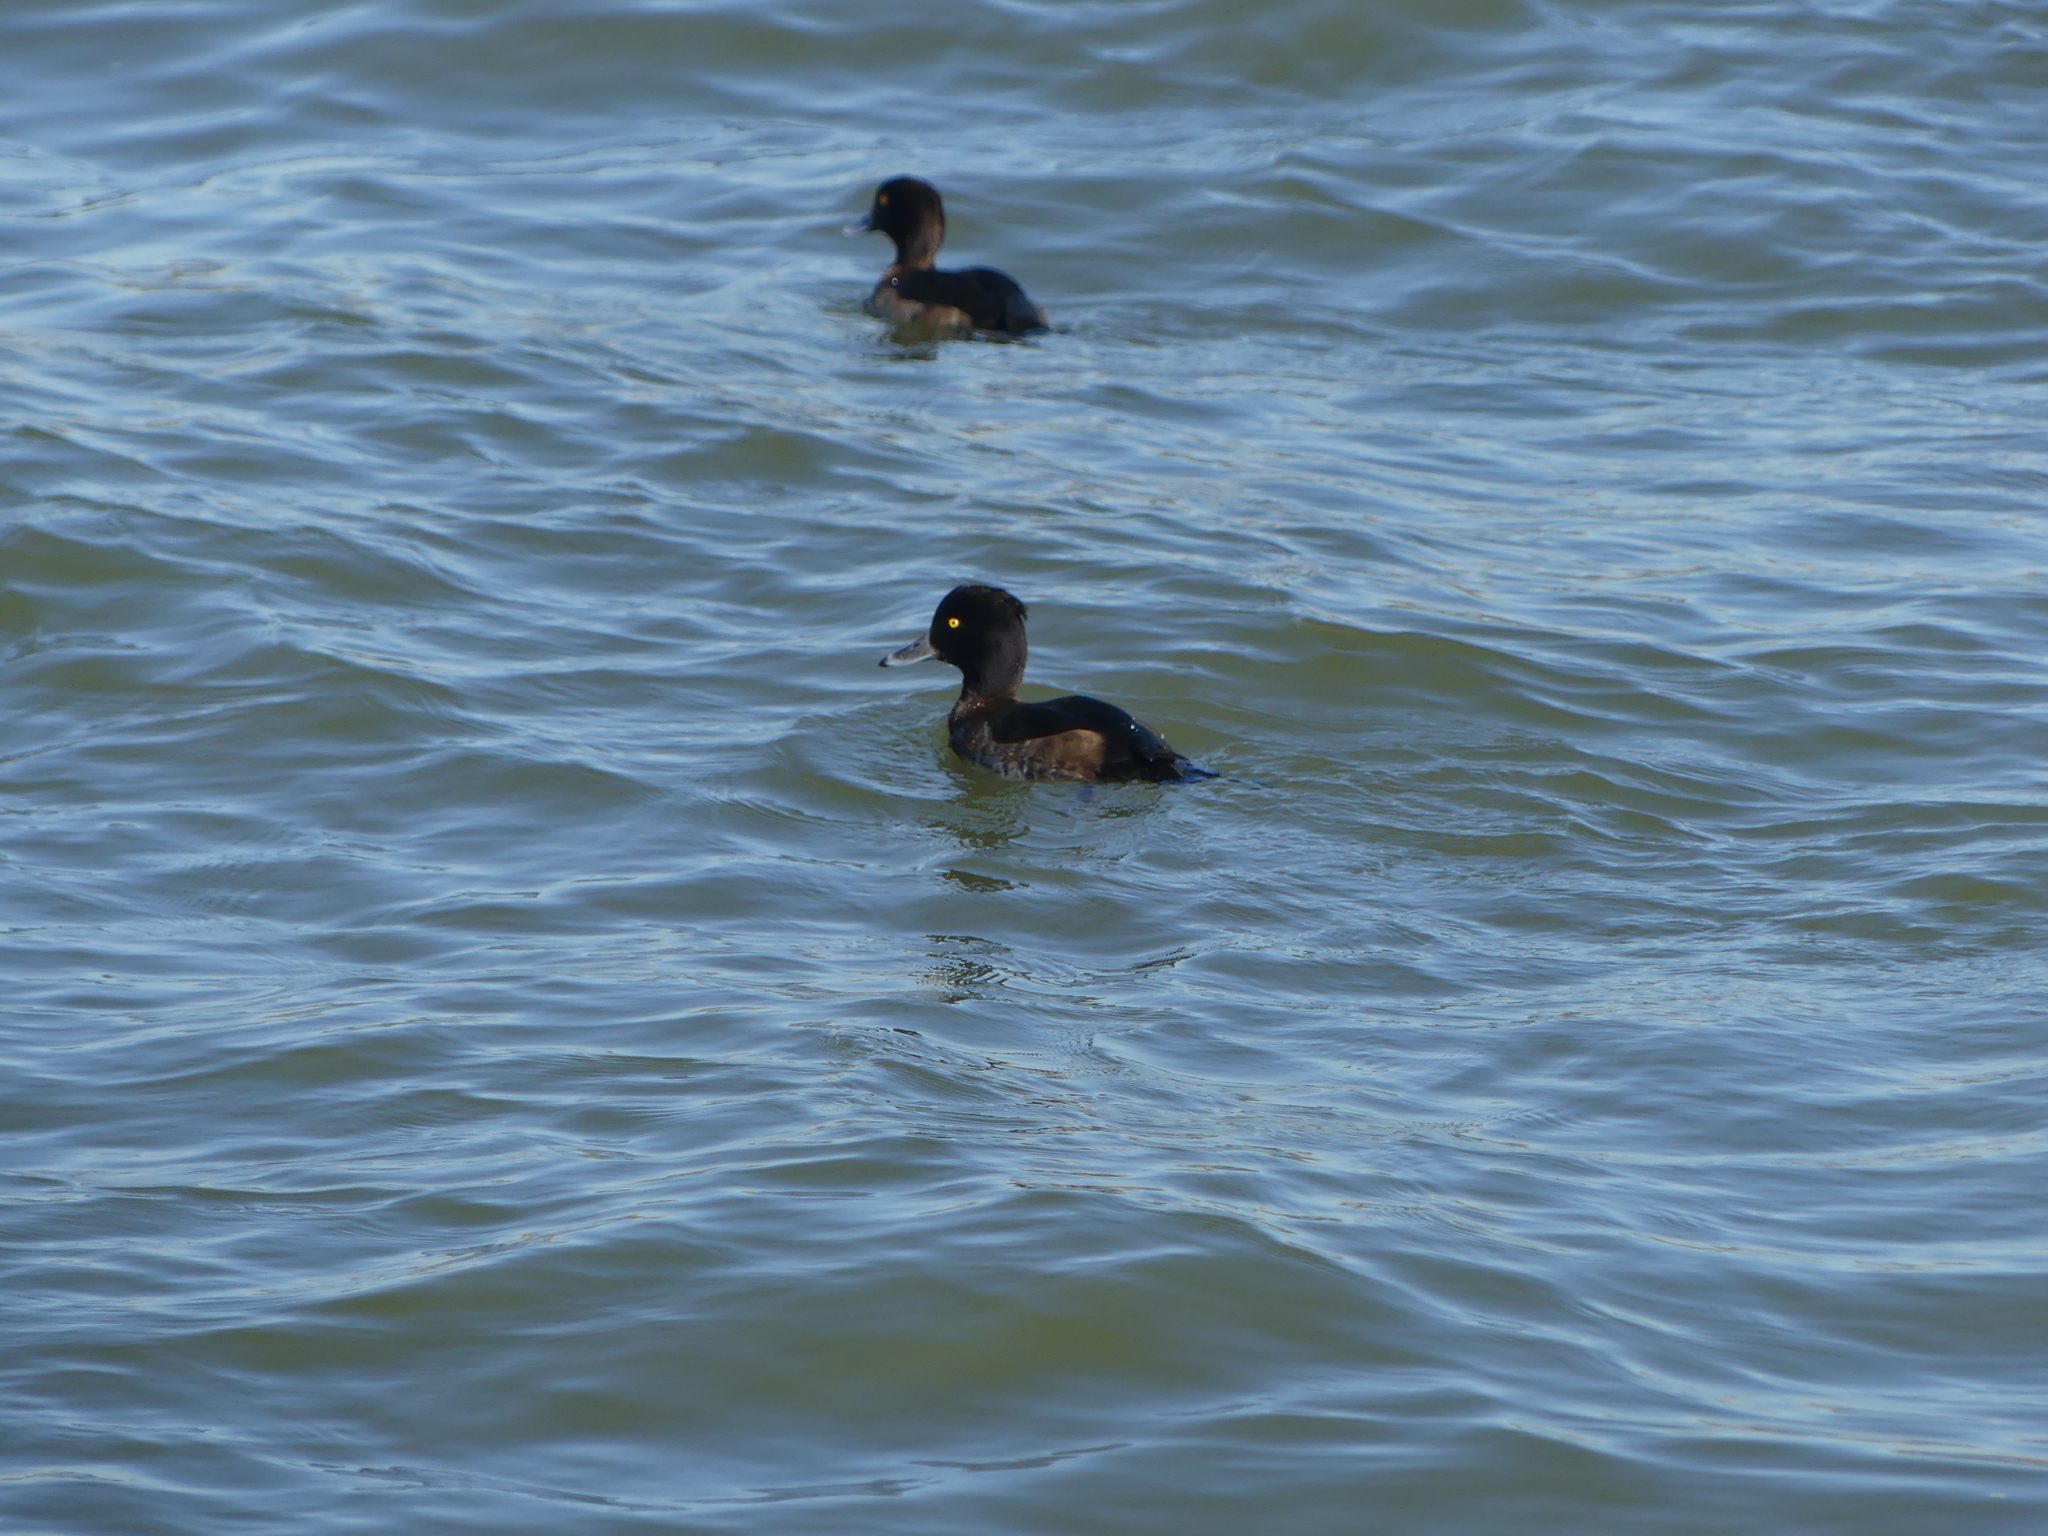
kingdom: Animalia
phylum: Chordata
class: Aves
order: Anseriformes
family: Anatidae
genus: Aythya
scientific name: Aythya fuligula
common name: Tufted duck
